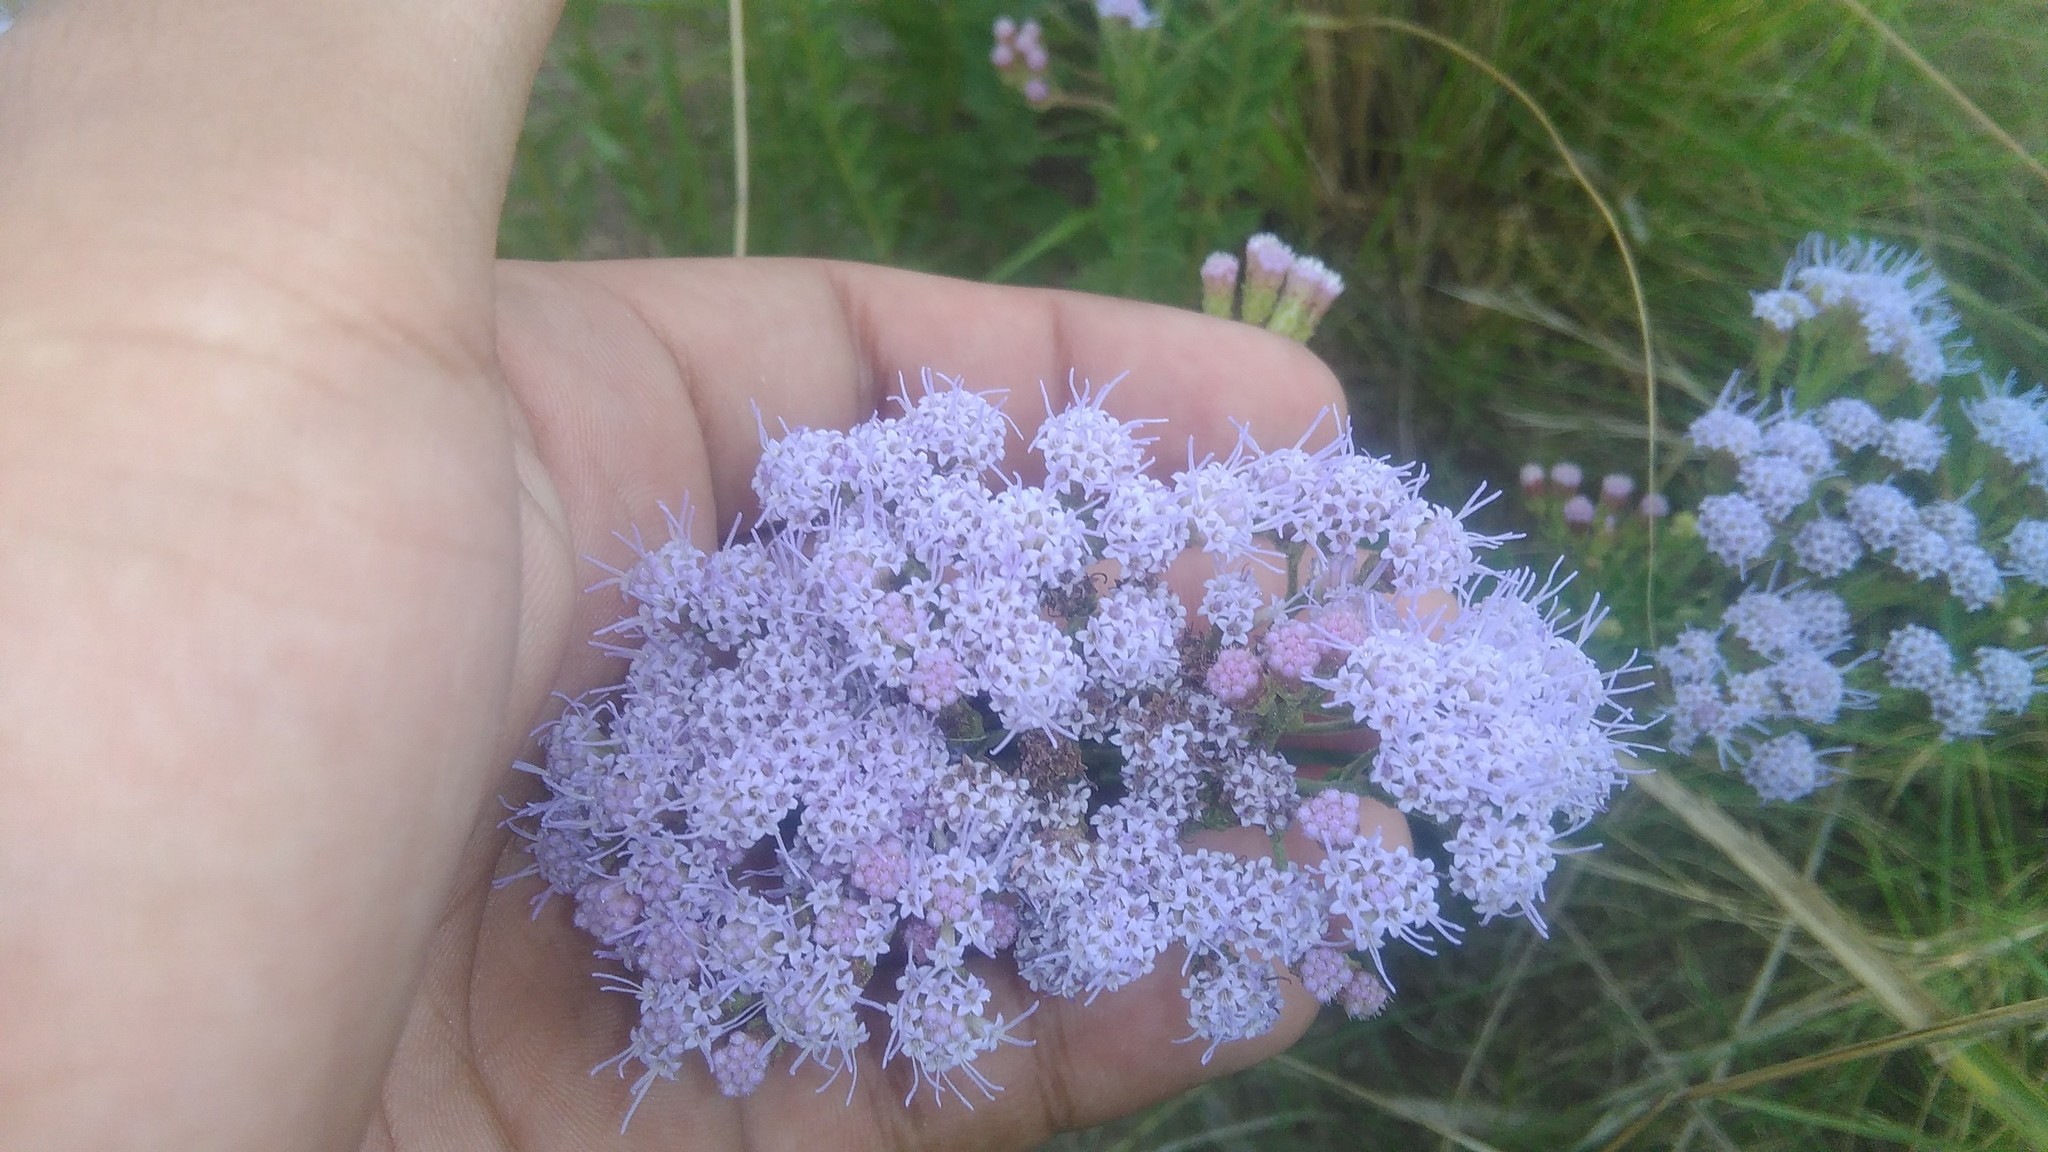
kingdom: Plantae
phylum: Tracheophyta
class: Magnoliopsida
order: Asterales
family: Asteraceae
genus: Chromolaena
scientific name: Chromolaena hirsuta
